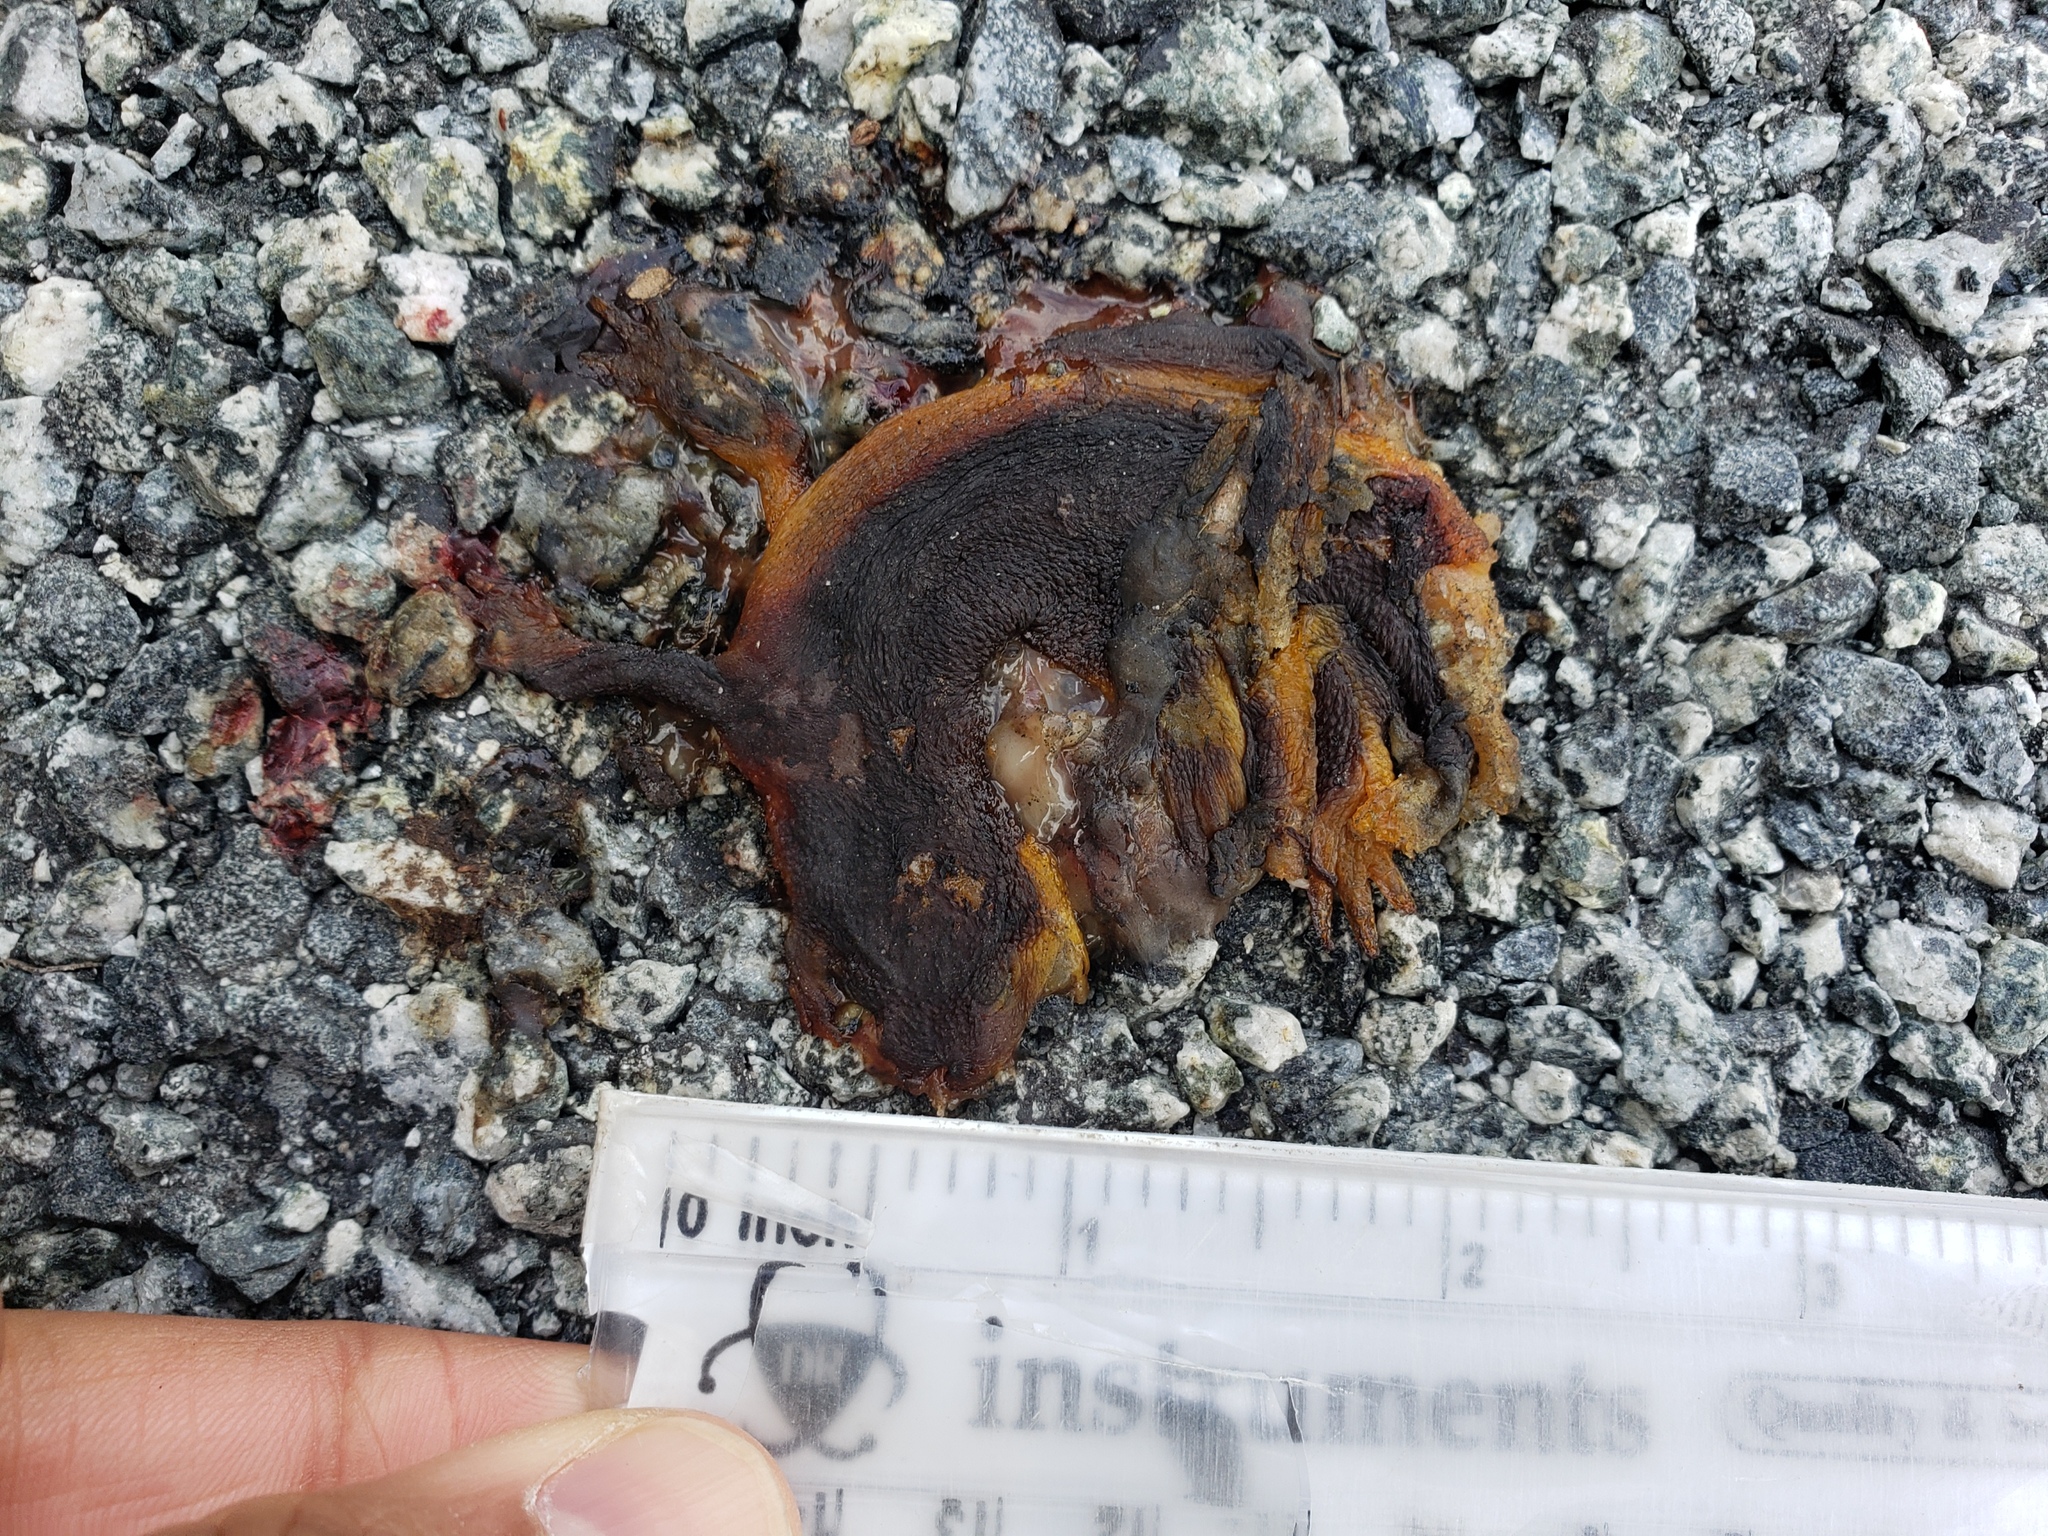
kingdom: Animalia
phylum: Chordata
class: Amphibia
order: Caudata
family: Salamandridae
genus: Taricha
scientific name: Taricha
